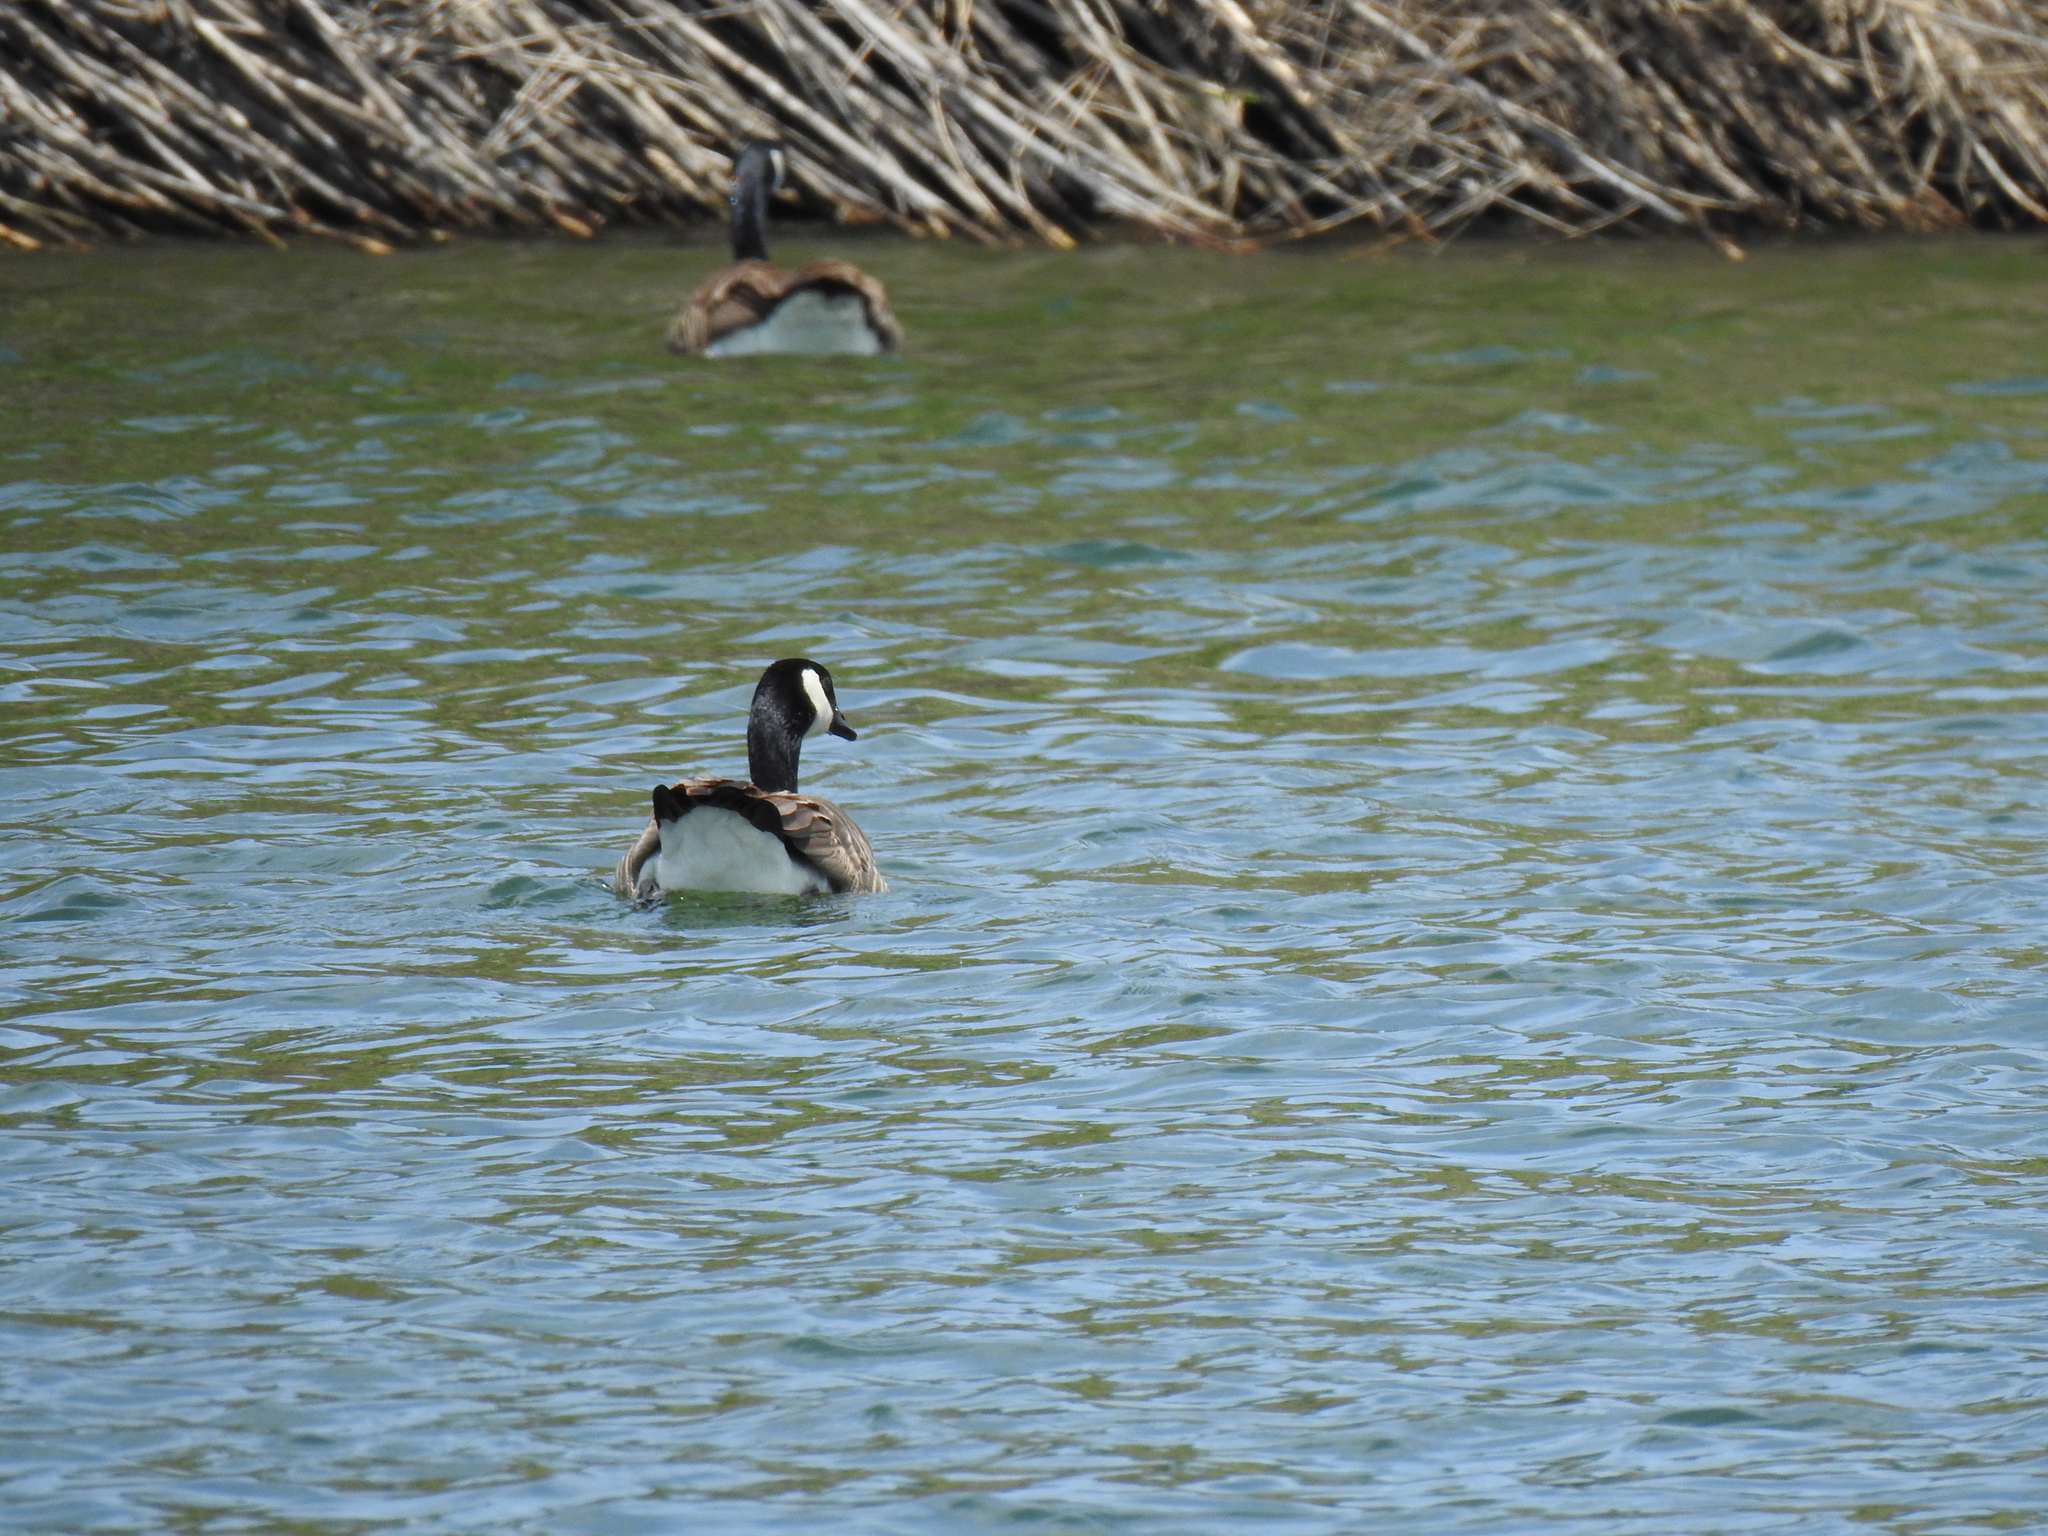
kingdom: Animalia
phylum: Chordata
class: Aves
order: Anseriformes
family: Anatidae
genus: Branta
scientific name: Branta canadensis
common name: Canada goose
